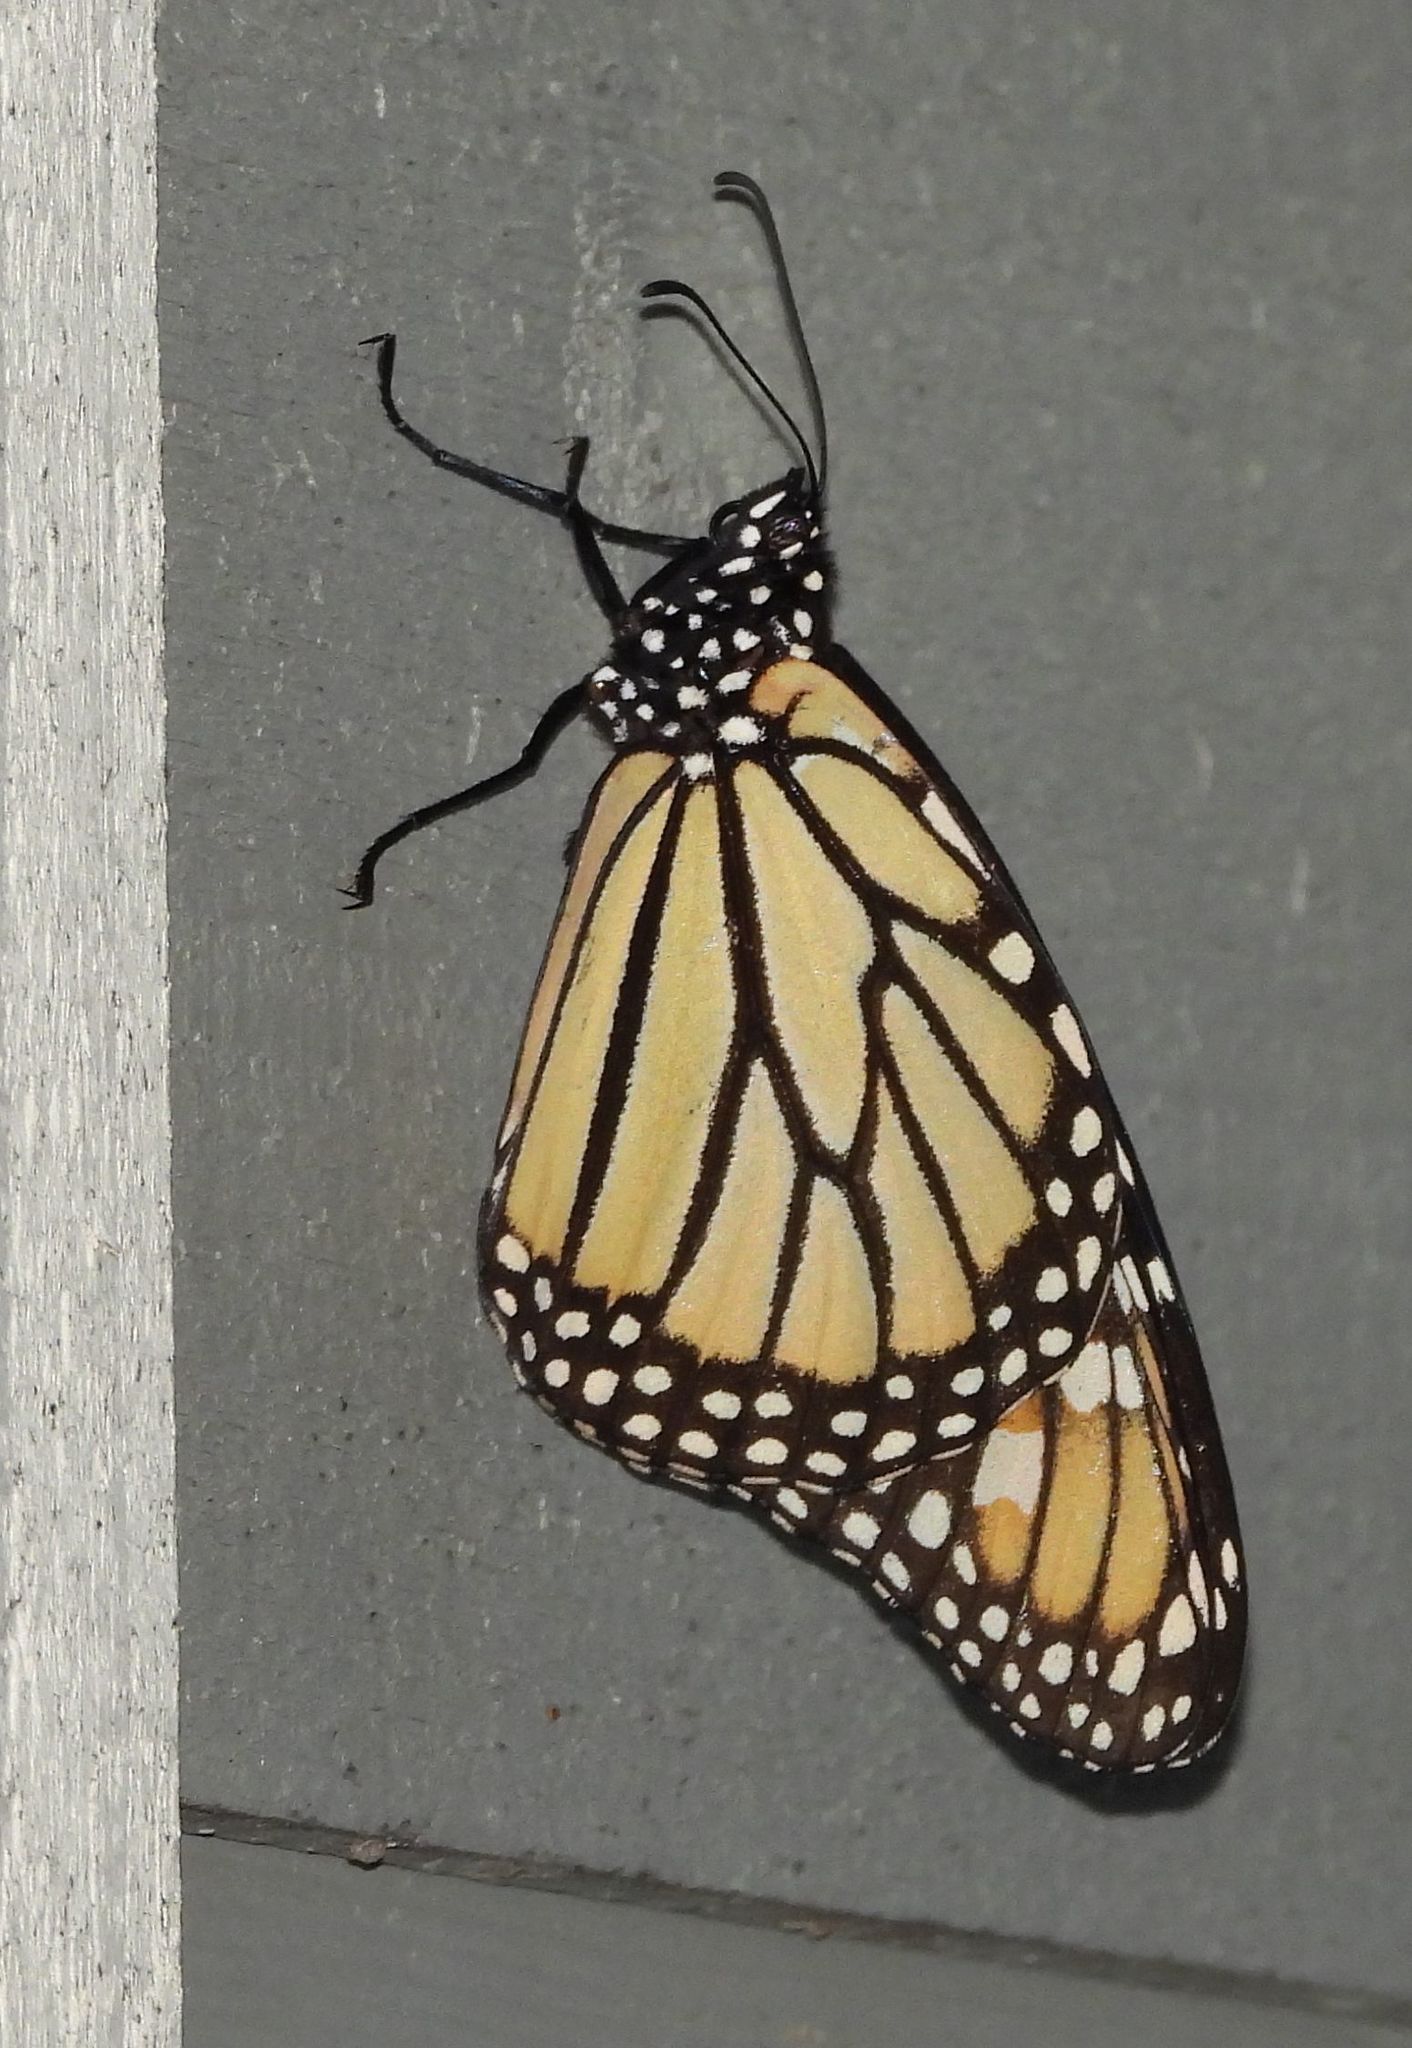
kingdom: Animalia
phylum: Arthropoda
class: Insecta
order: Lepidoptera
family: Nymphalidae
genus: Danaus
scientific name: Danaus plexippus
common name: Monarch
